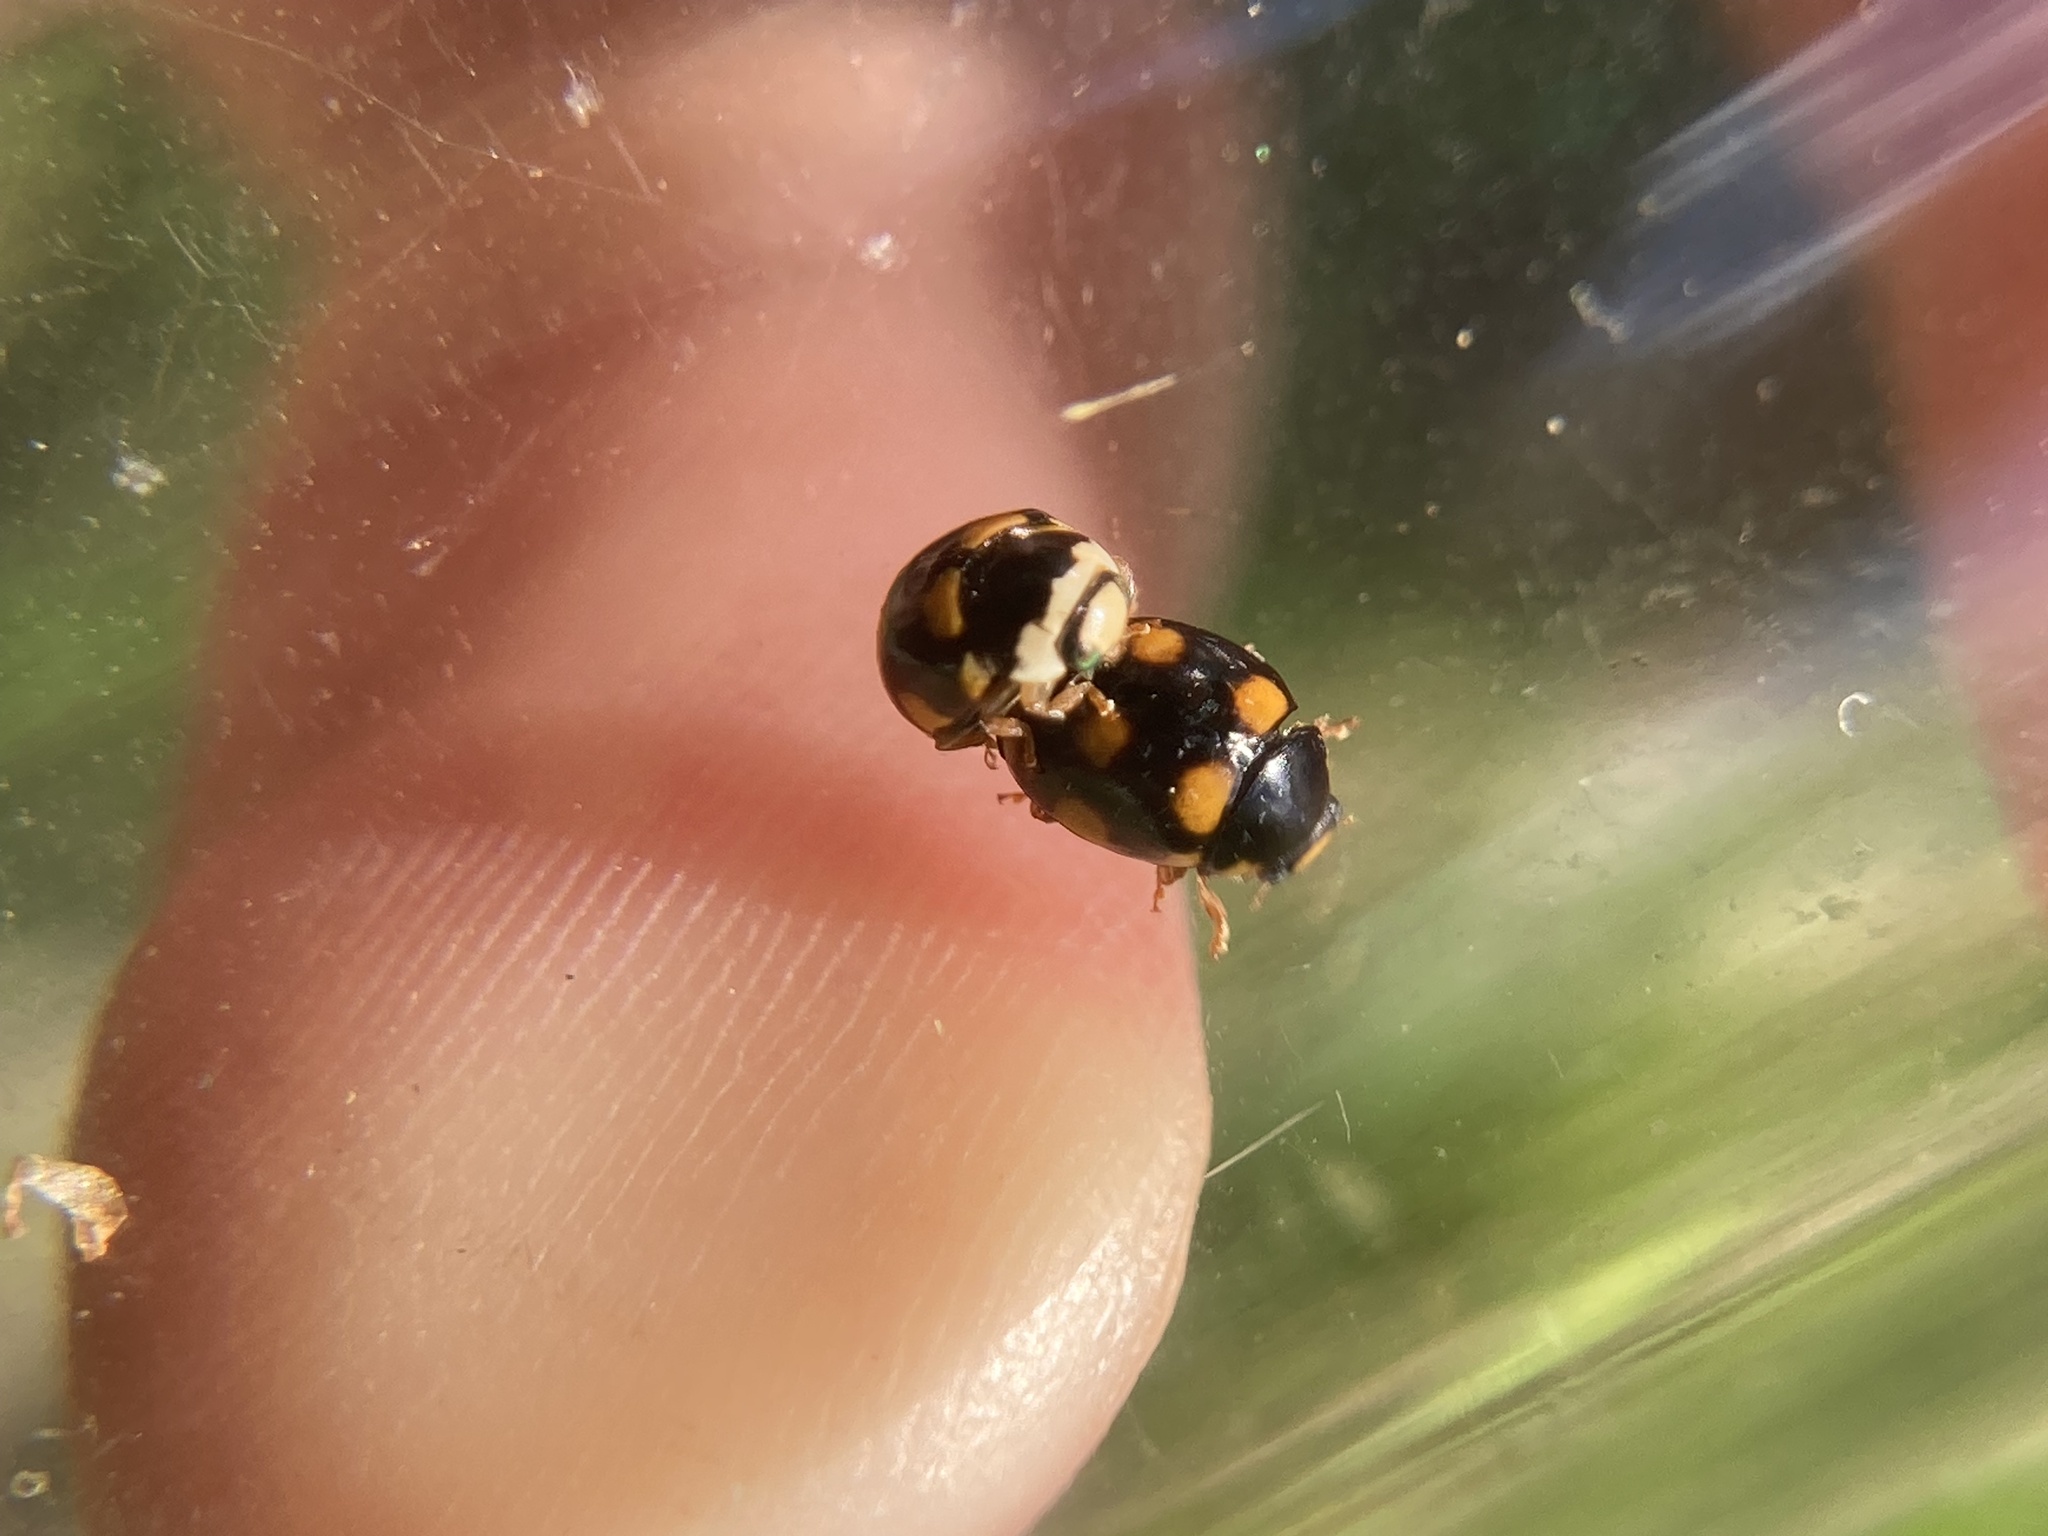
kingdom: Animalia
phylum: Arthropoda
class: Insecta
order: Coleoptera
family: Coccinellidae
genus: Brachiacantha
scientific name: Brachiacantha ursina
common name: Ursine spurleg lady beetle
